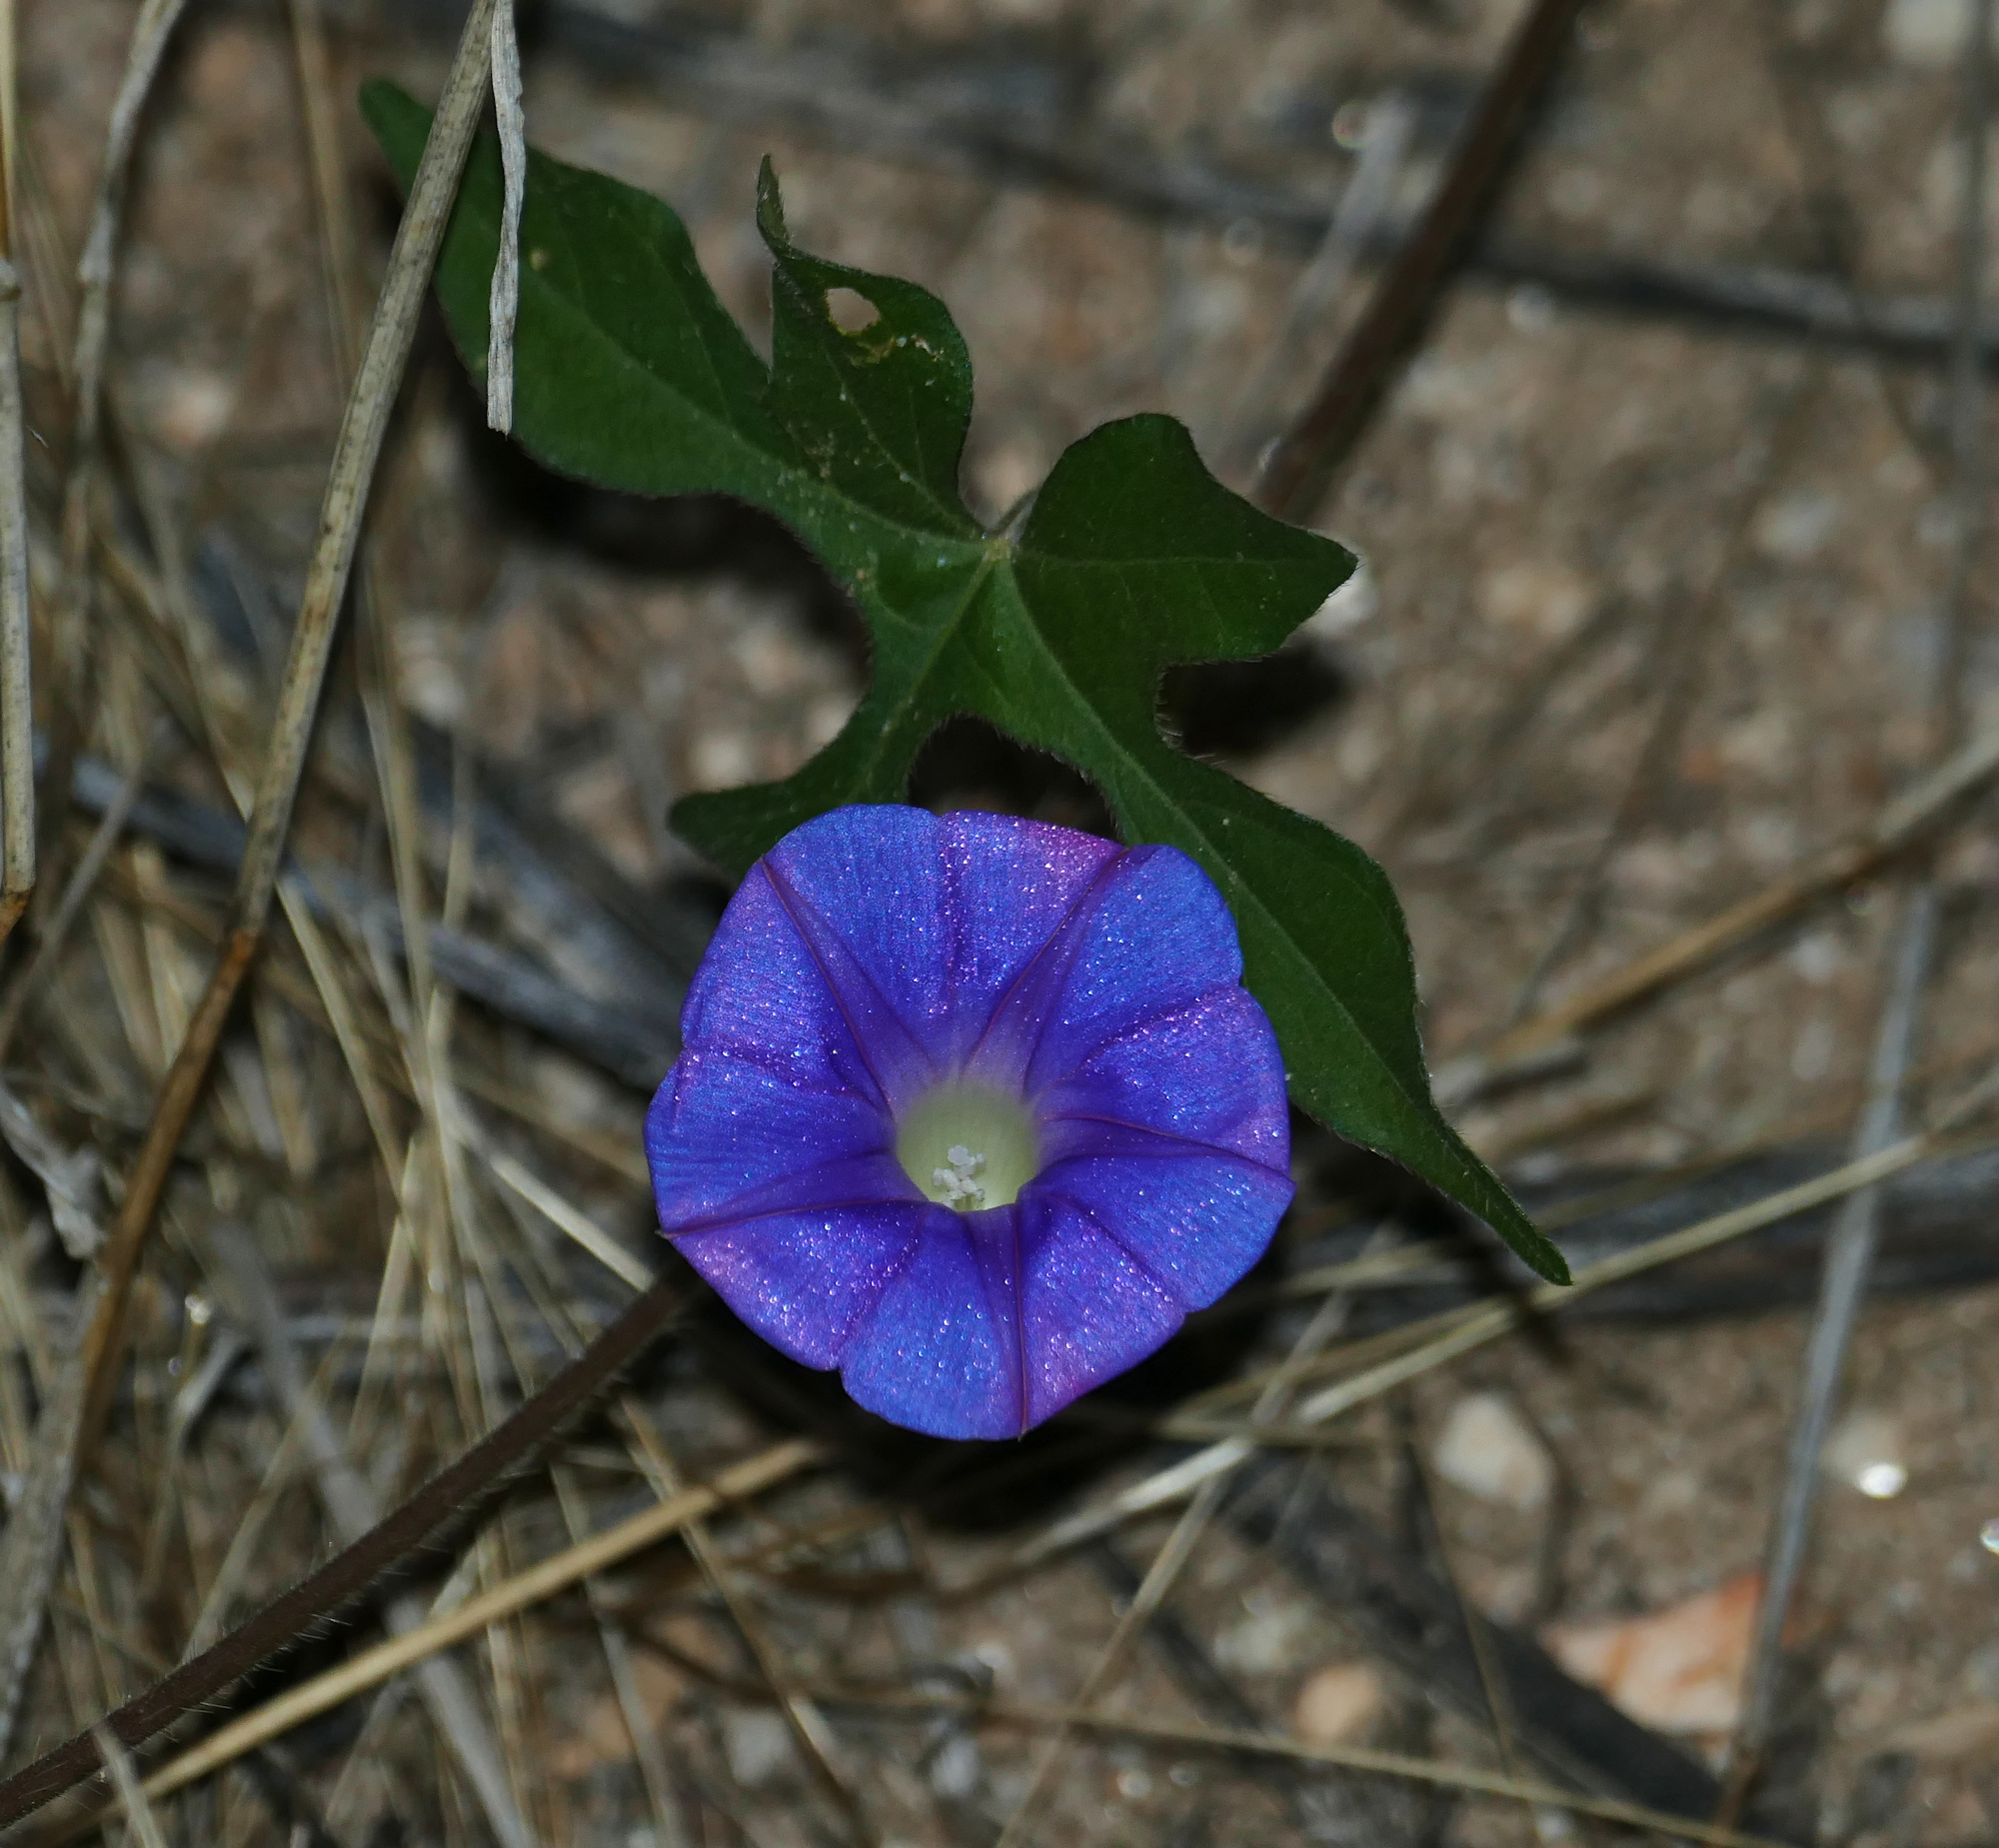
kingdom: Plantae
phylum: Tracheophyta
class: Magnoliopsida
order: Solanales
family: Convolvulaceae
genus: Ipomoea
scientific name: Ipomoea hederacea
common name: Ivy-leaved morning-glory
